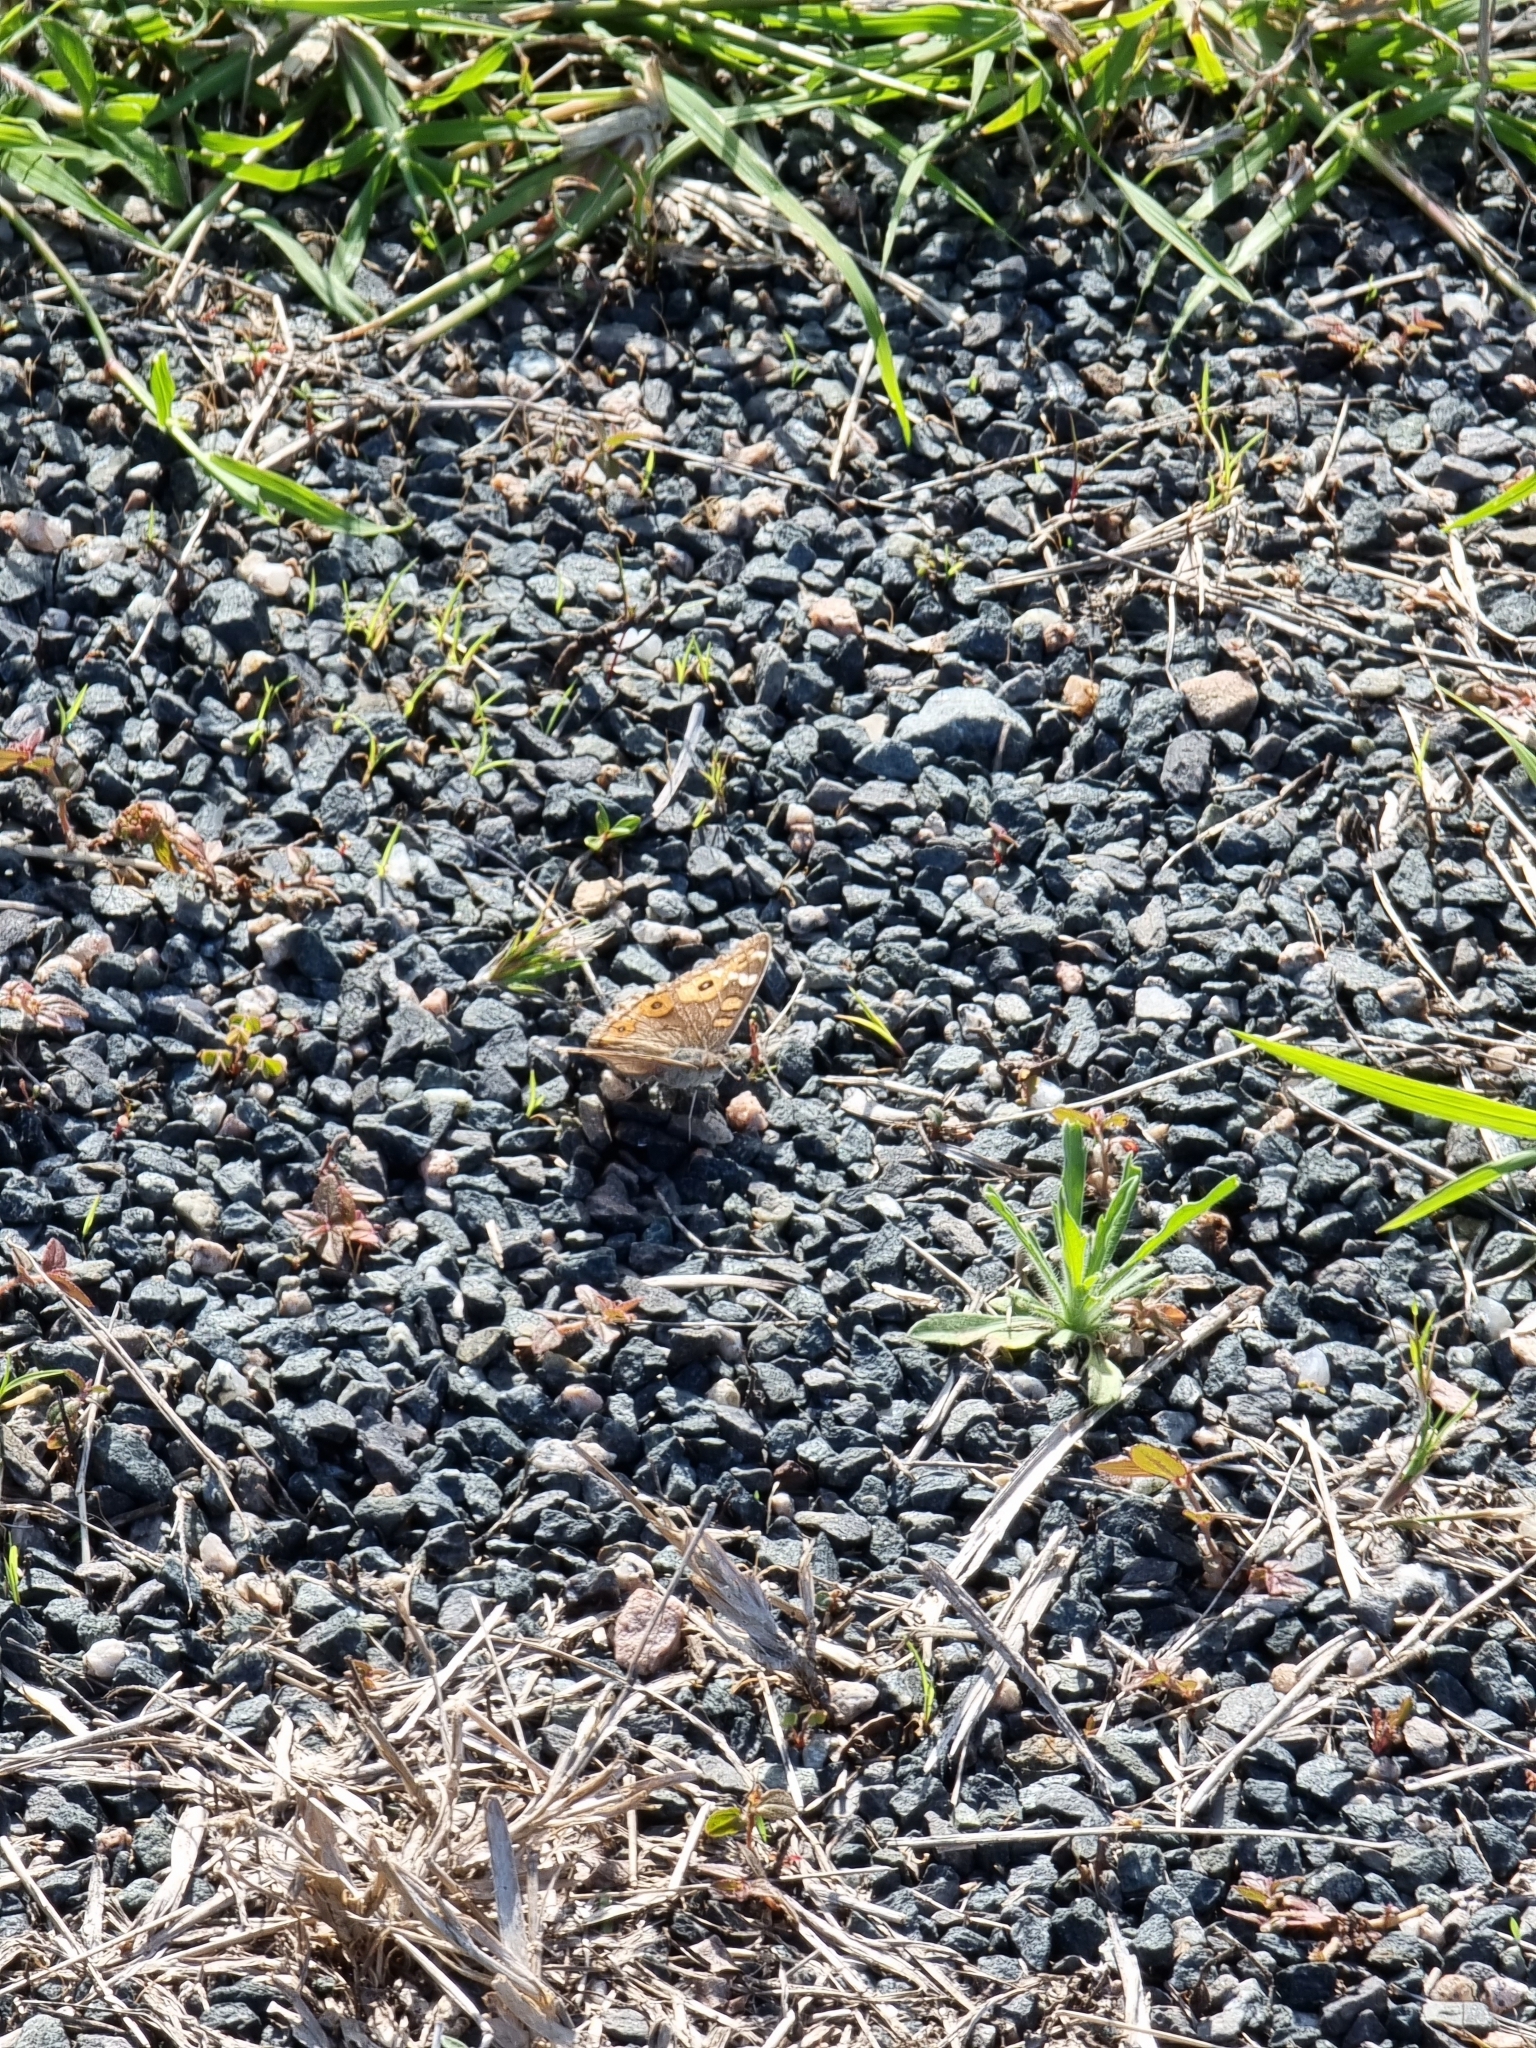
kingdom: Animalia
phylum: Arthropoda
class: Insecta
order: Lepidoptera
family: Nymphalidae
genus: Junonia
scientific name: Junonia villida
